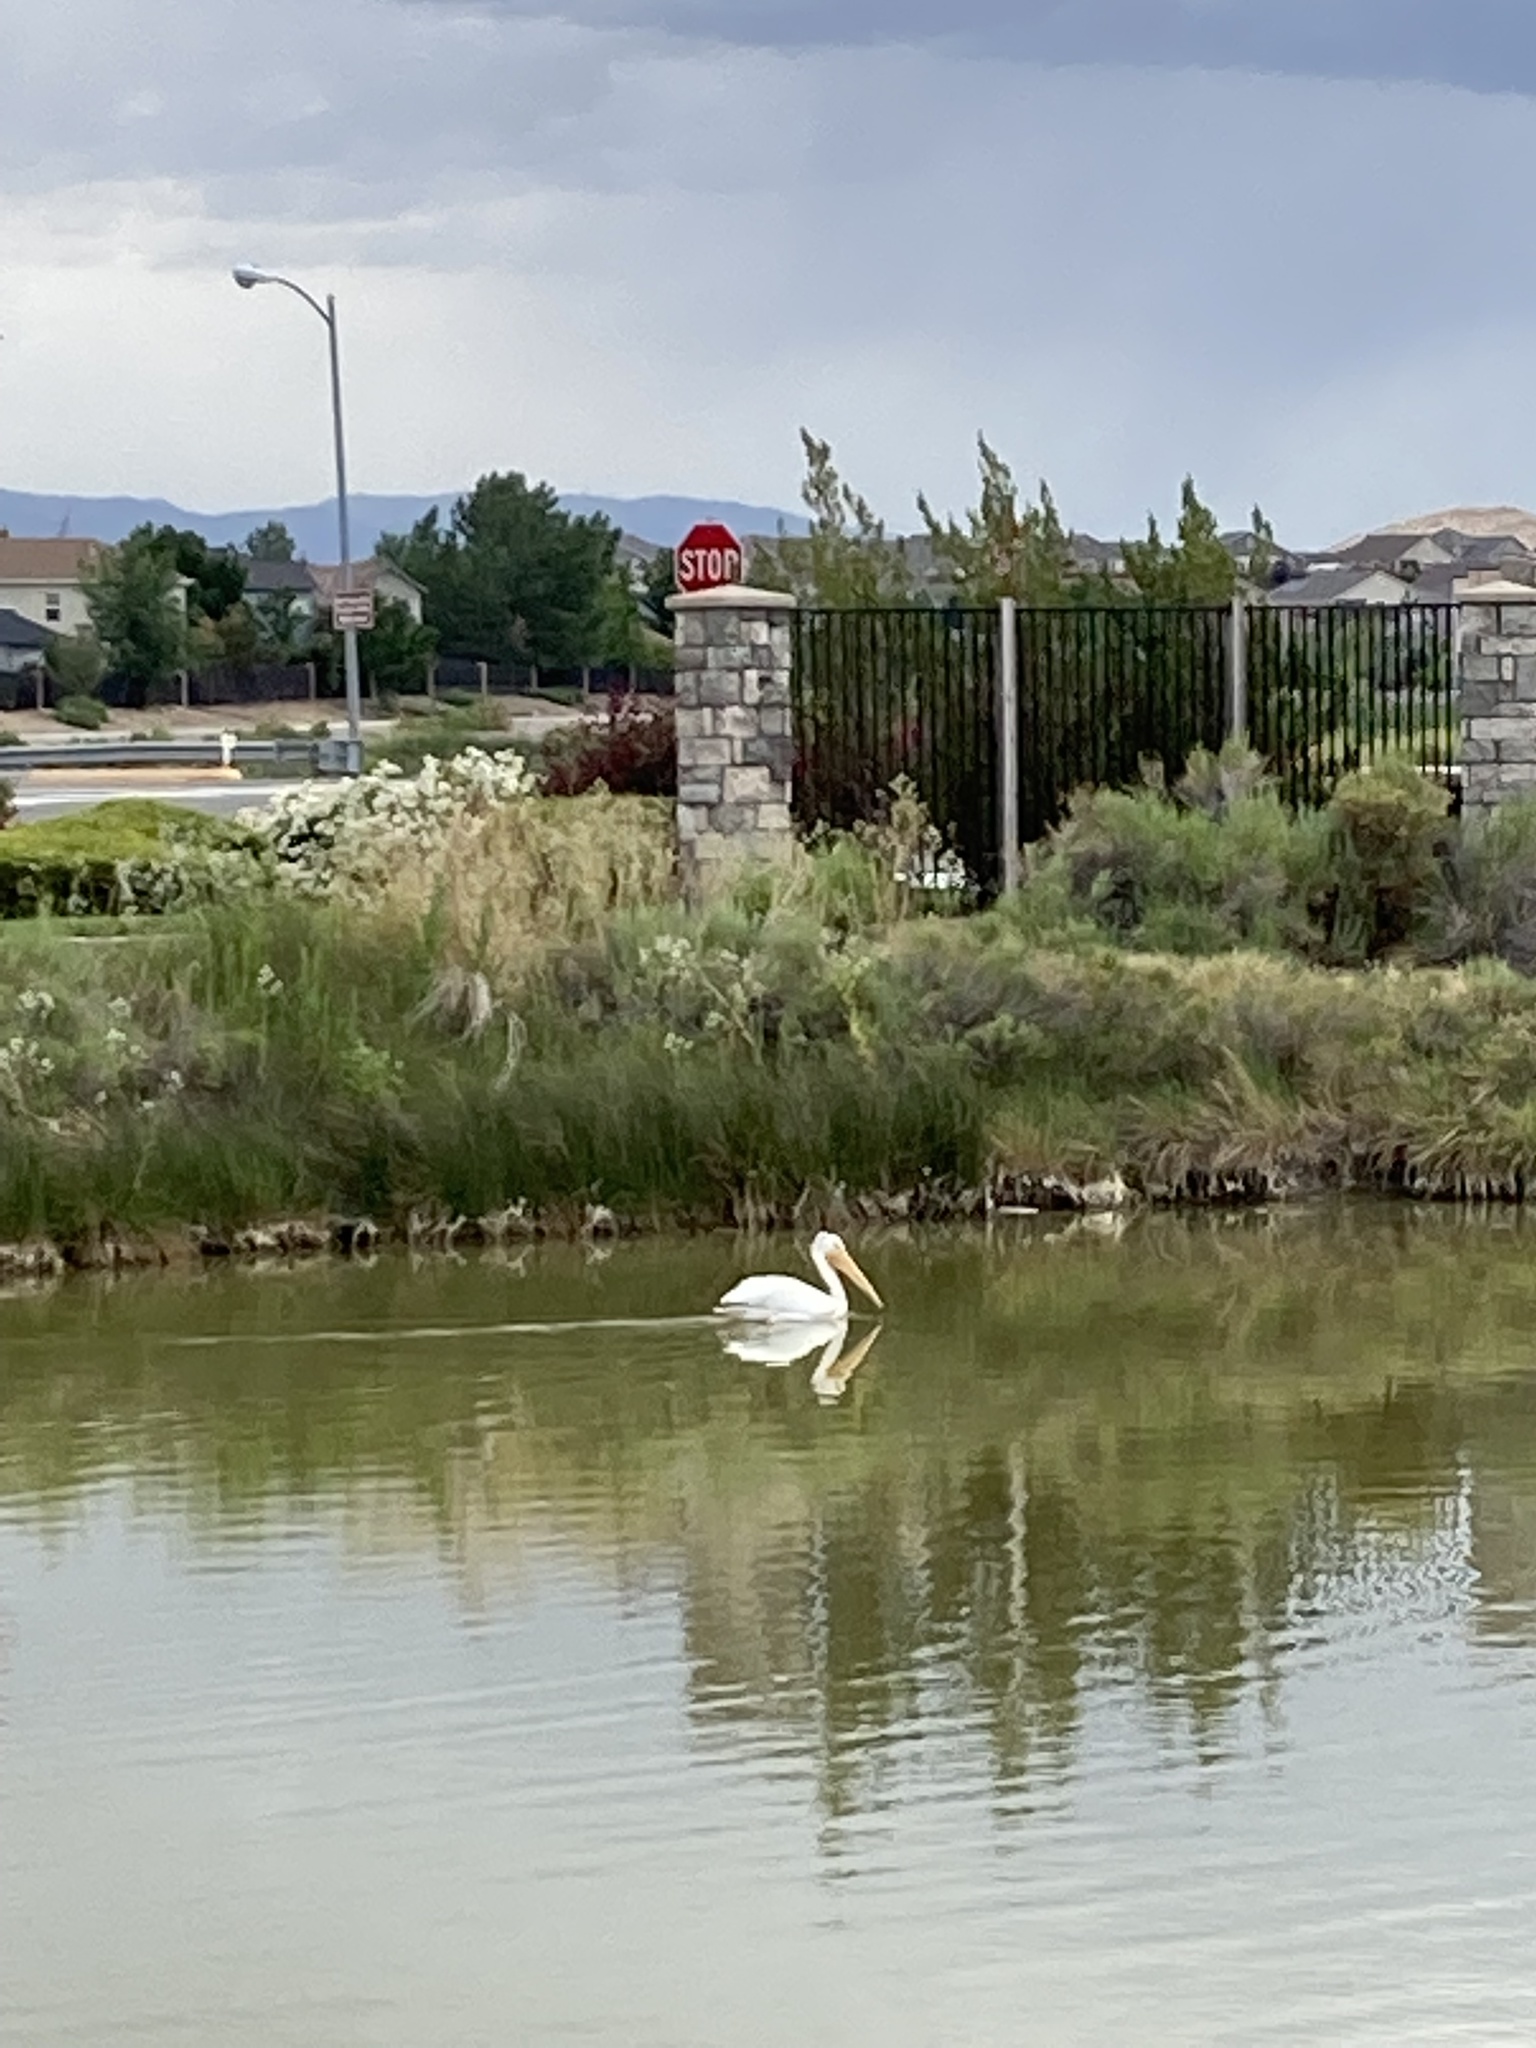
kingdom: Animalia
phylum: Chordata
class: Aves
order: Pelecaniformes
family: Pelecanidae
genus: Pelecanus
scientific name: Pelecanus erythrorhynchos
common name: American white pelican
